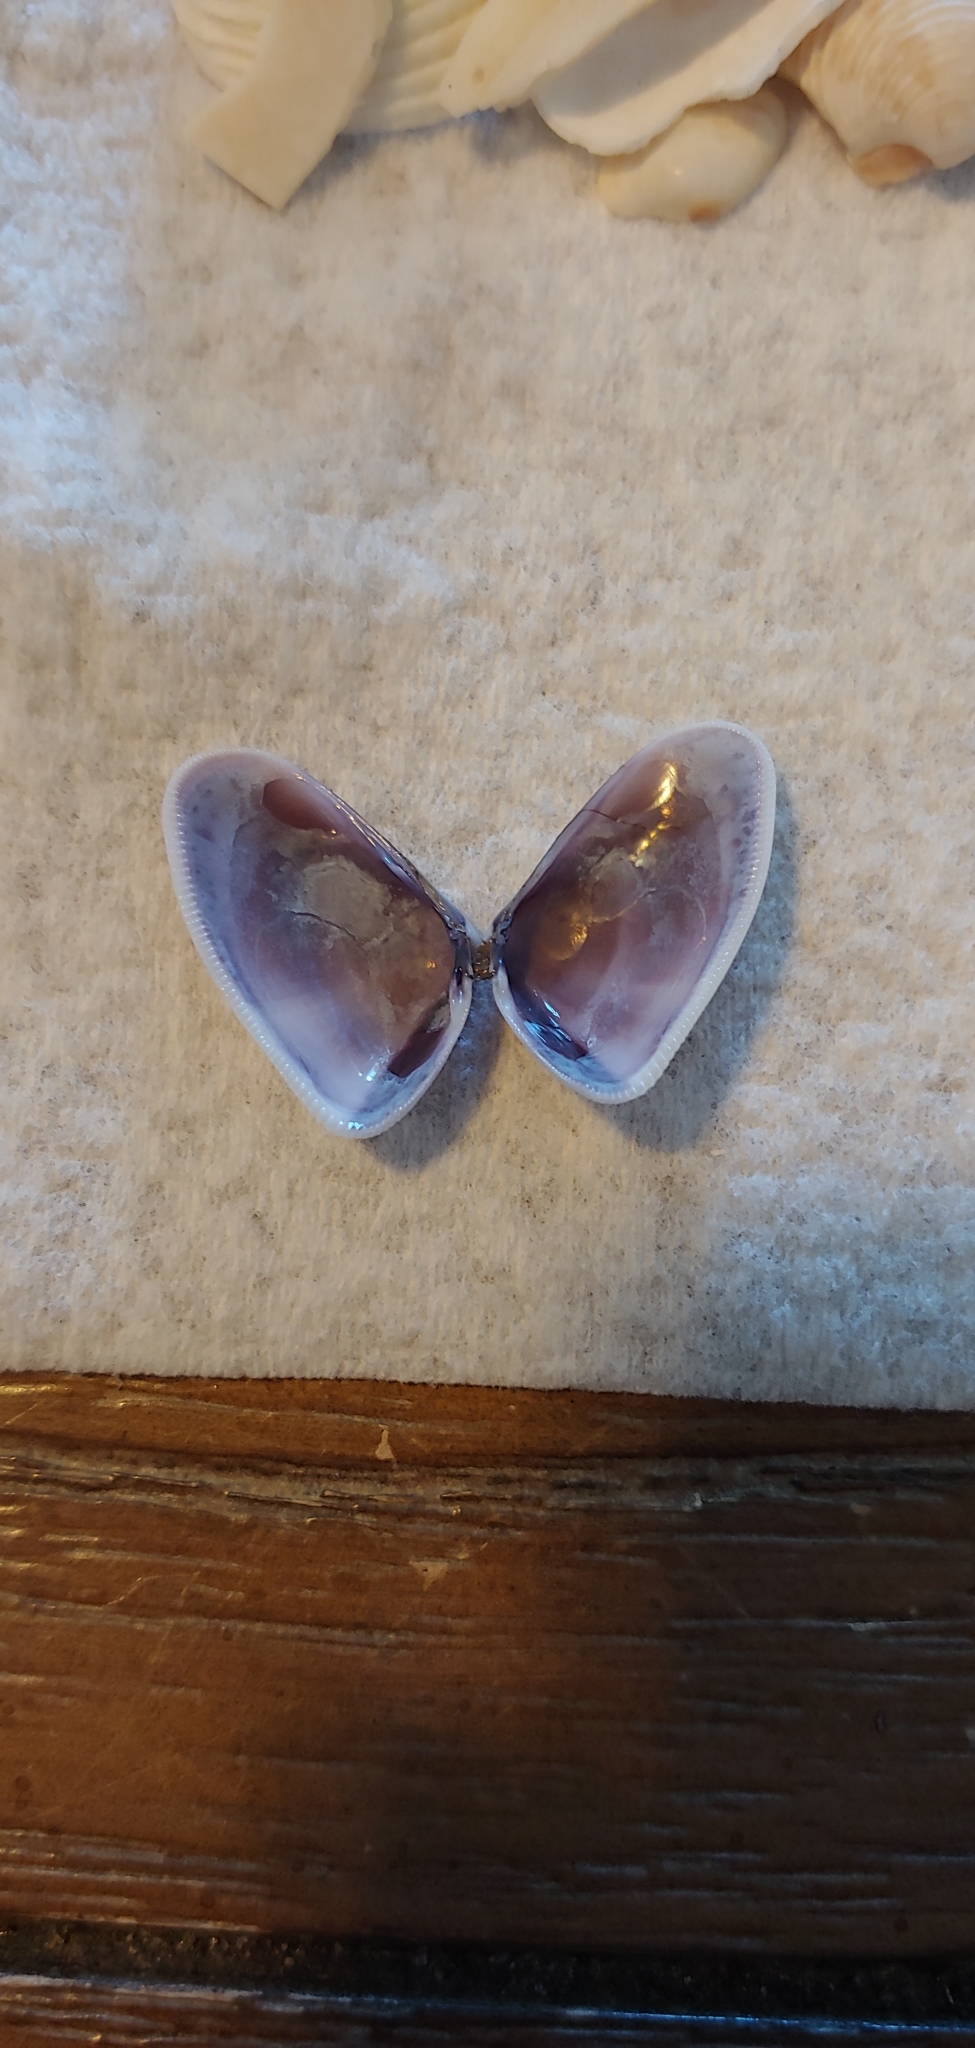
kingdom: Animalia
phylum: Mollusca
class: Bivalvia
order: Cardiida
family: Donacidae
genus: Donax
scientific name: Donax variabilis
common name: Butterfly shell
